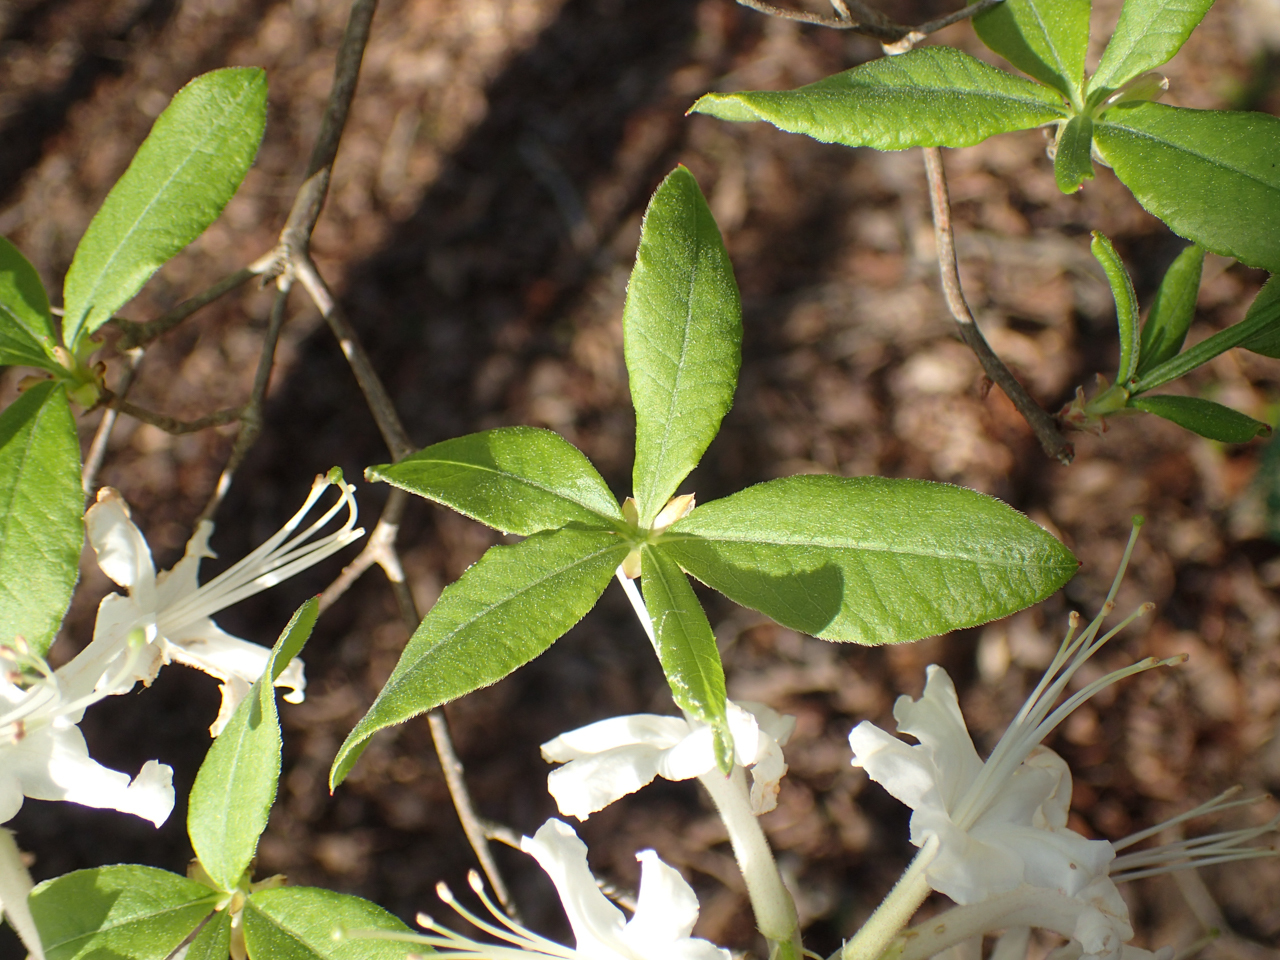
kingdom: Plantae
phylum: Tracheophyta
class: Magnoliopsida
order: Ericales
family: Ericaceae
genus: Rhododendron
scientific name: Rhododendron alabamense
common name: Alabama azalea
